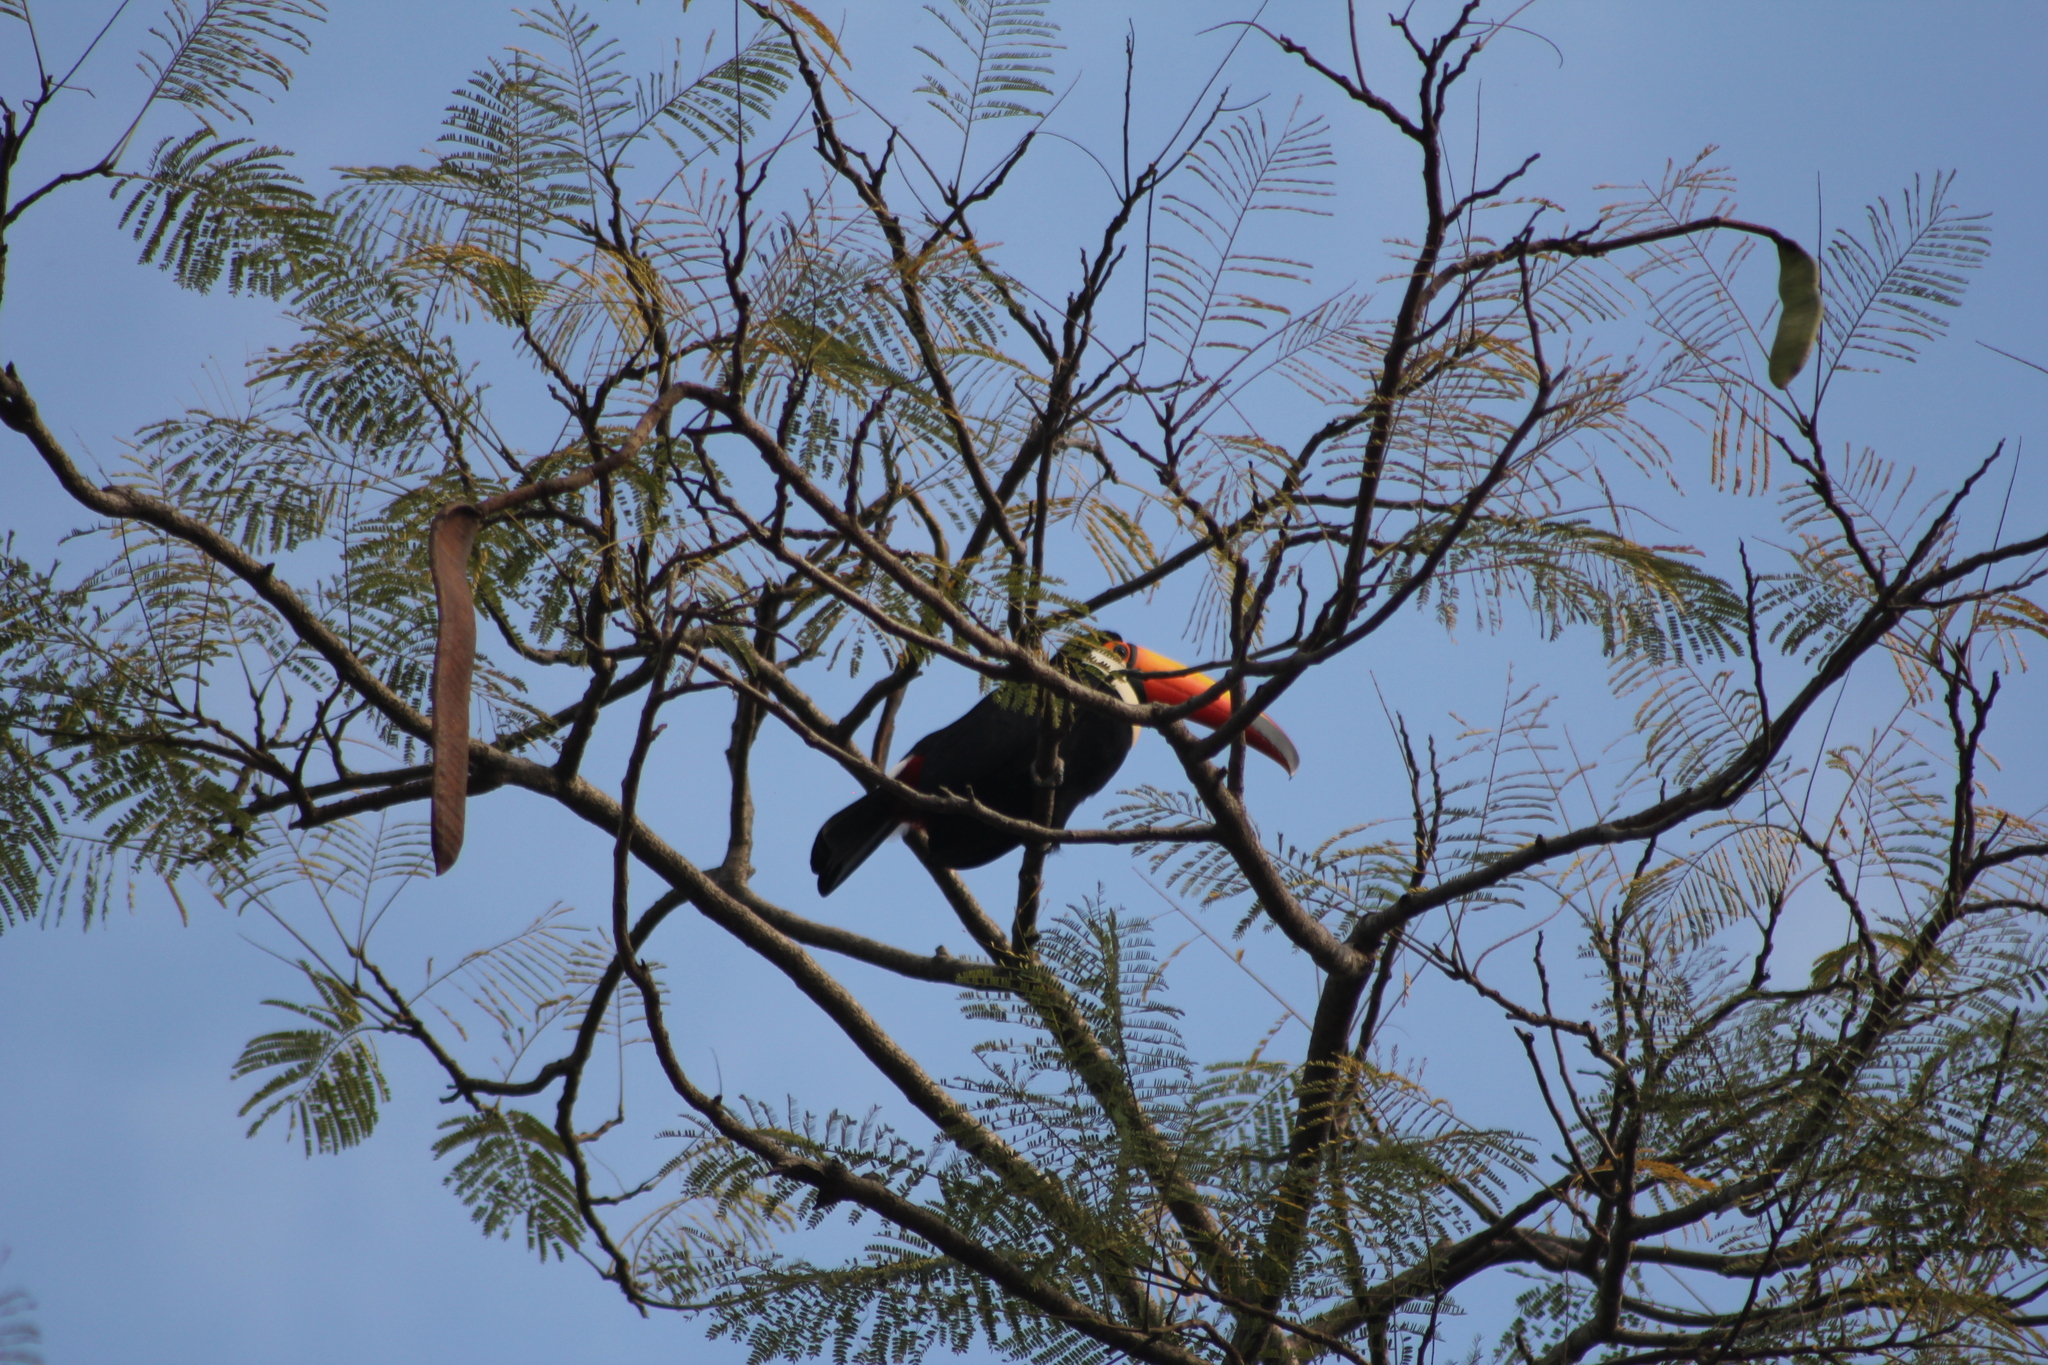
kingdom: Animalia
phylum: Chordata
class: Aves
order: Piciformes
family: Ramphastidae
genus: Ramphastos
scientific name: Ramphastos toco
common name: Toco toucan
